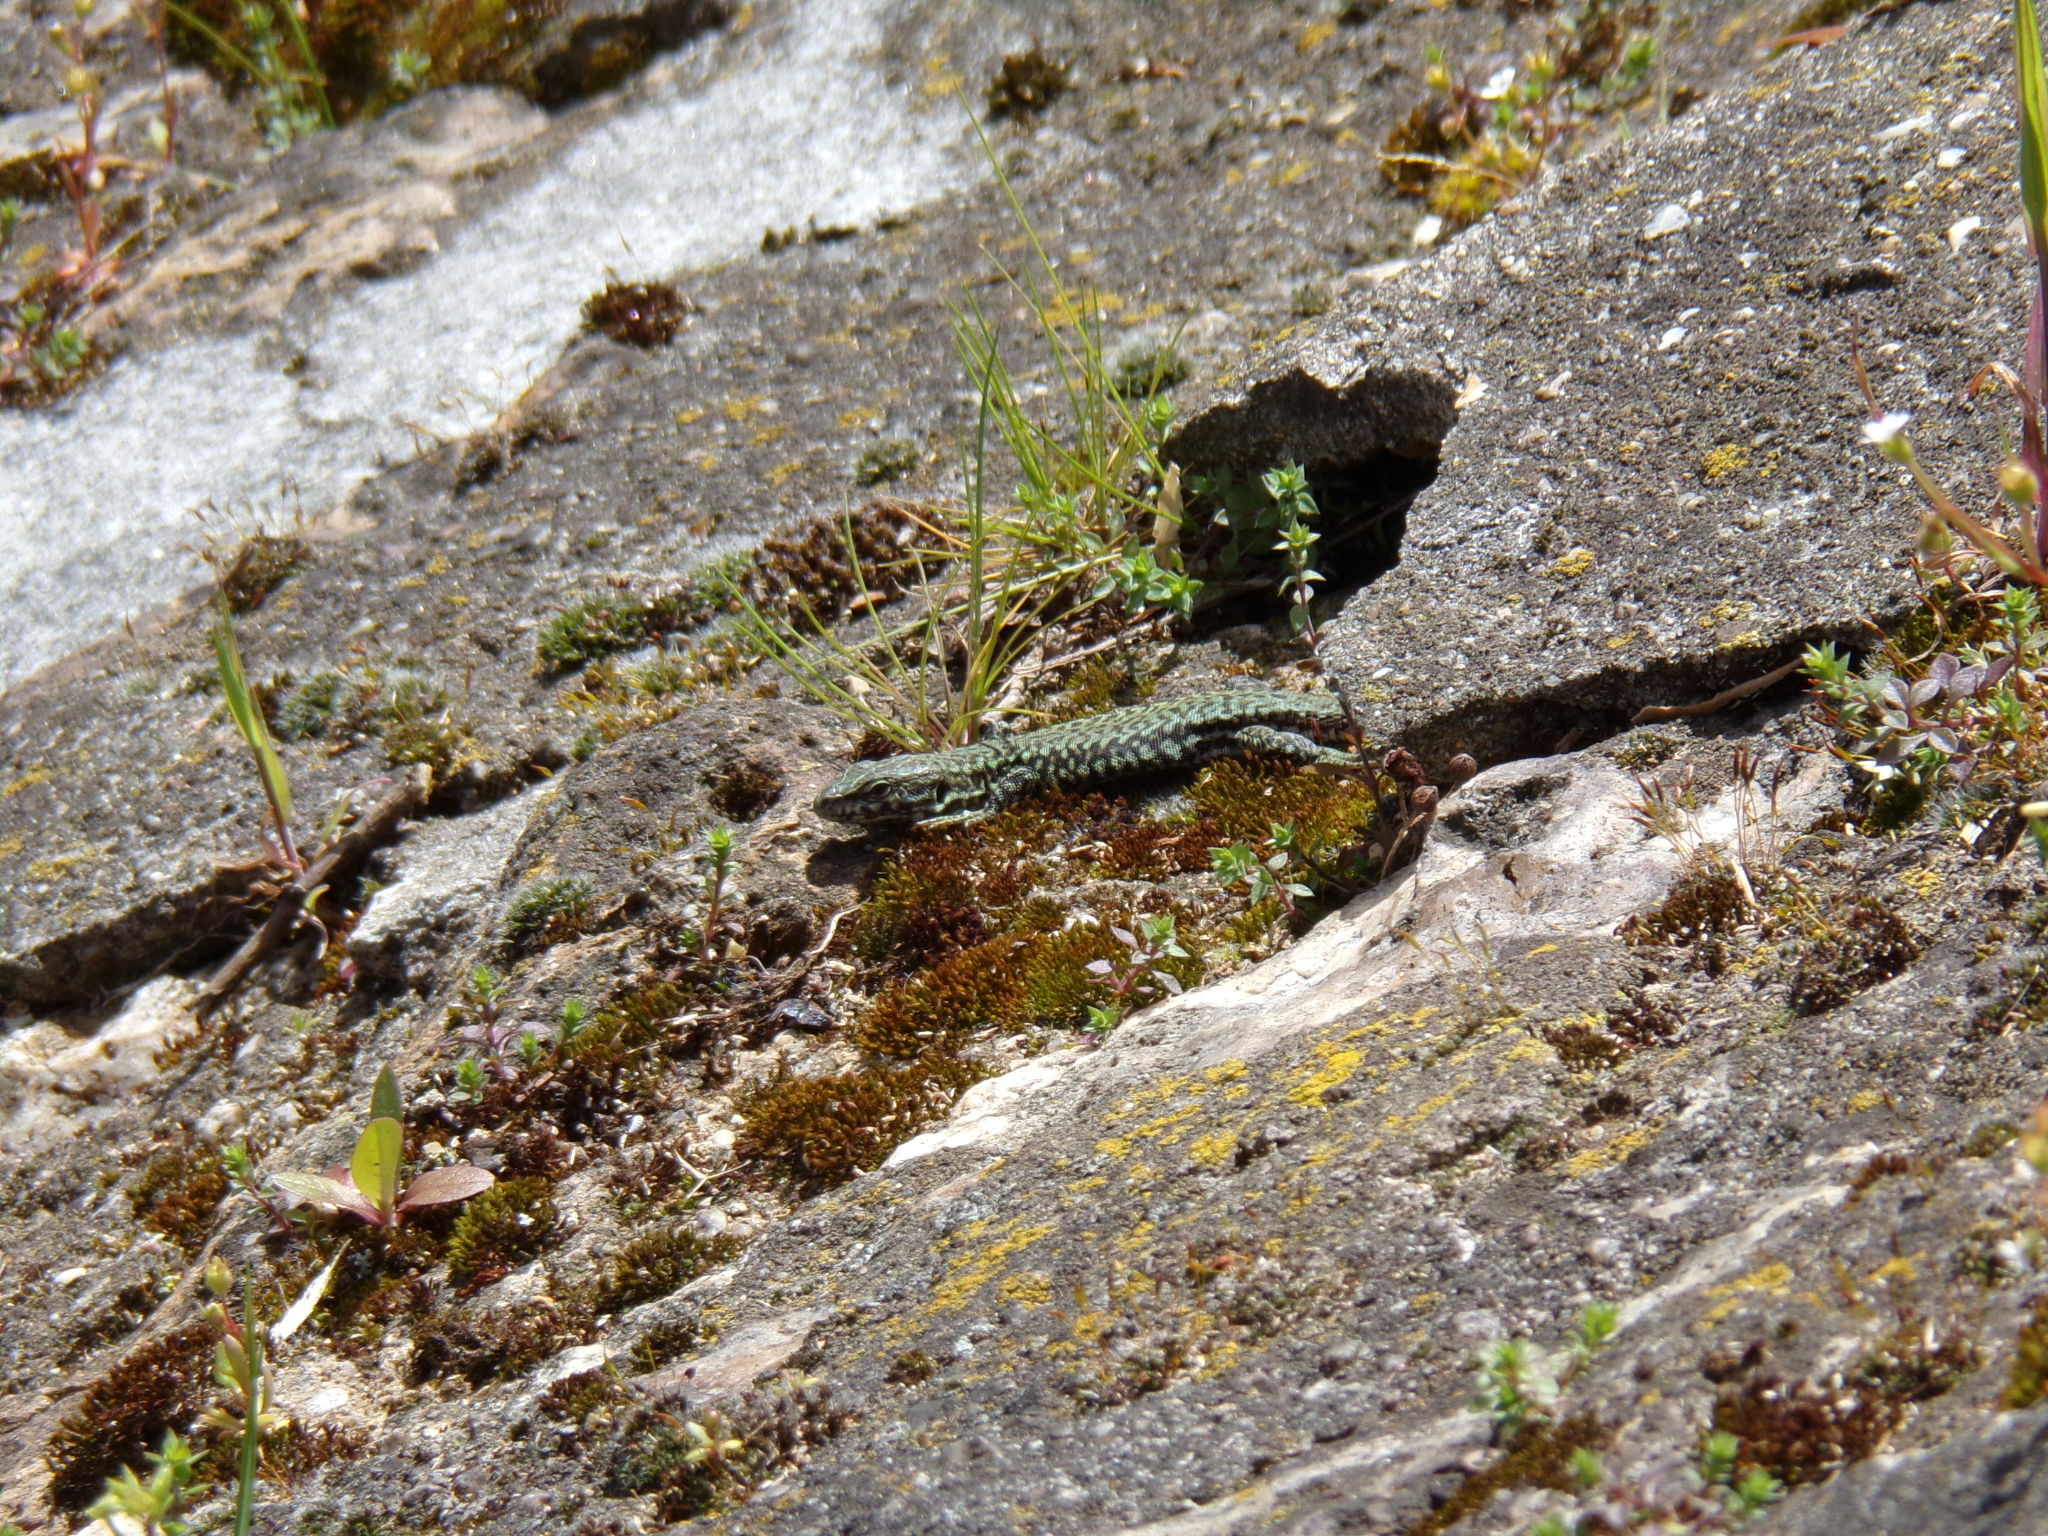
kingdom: Animalia
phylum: Chordata
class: Squamata
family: Lacertidae
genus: Podarcis
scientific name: Podarcis muralis
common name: Common wall lizard
